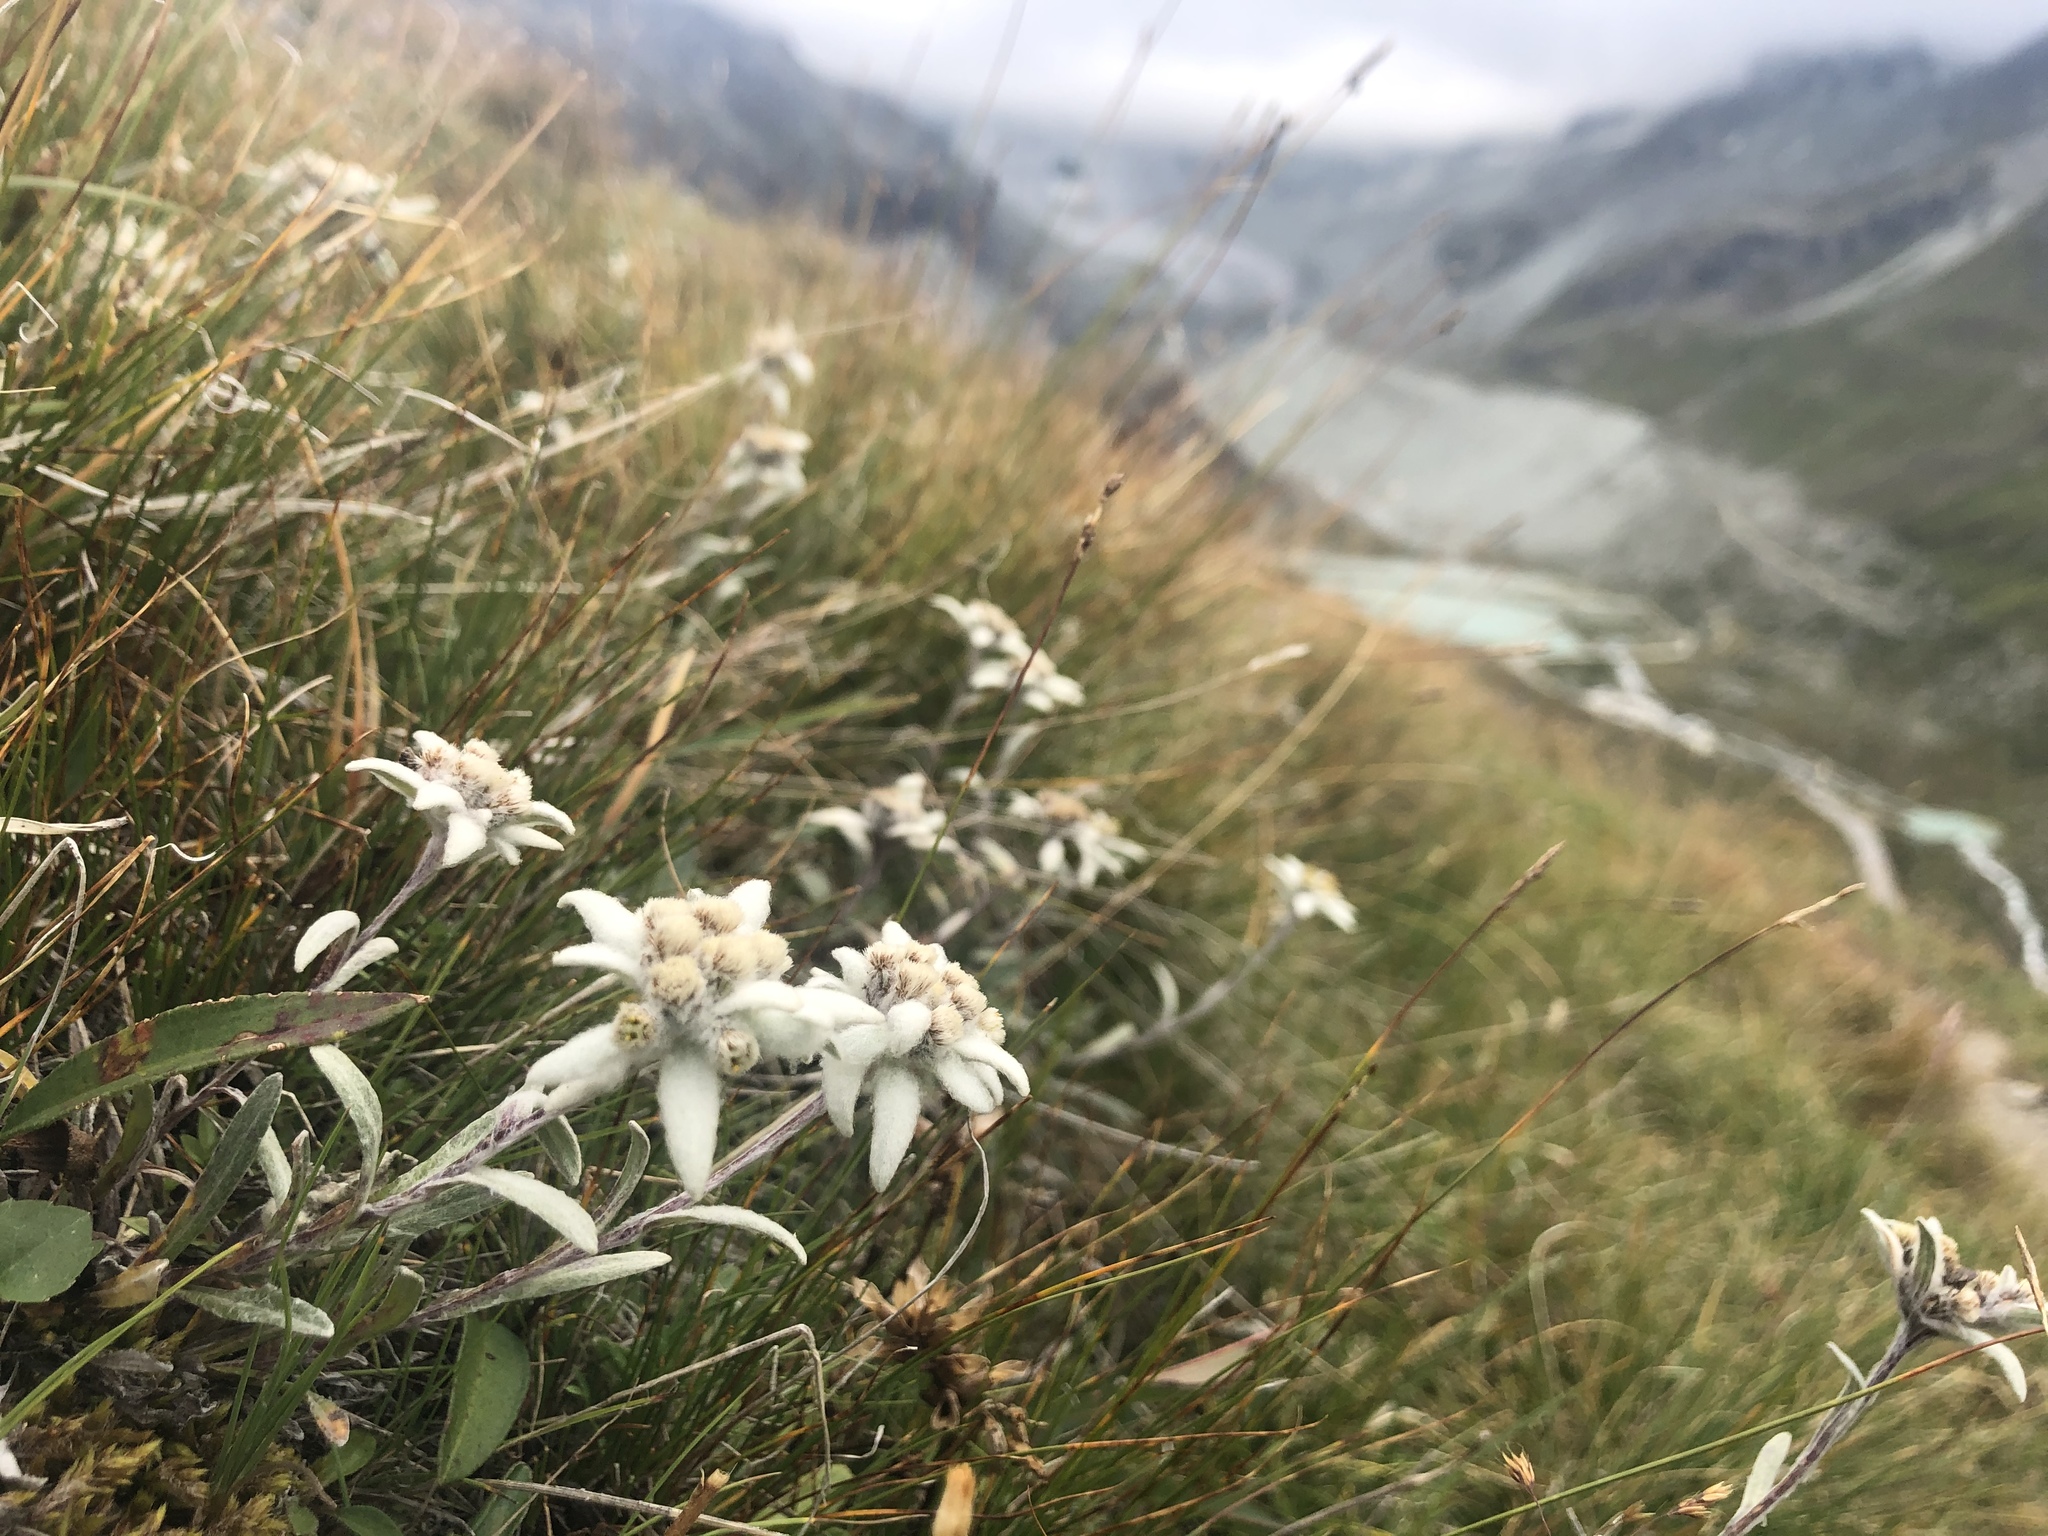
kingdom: Plantae
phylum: Tracheophyta
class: Magnoliopsida
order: Asterales
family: Asteraceae
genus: Leontopodium
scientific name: Leontopodium nivale
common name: Edelweiss
